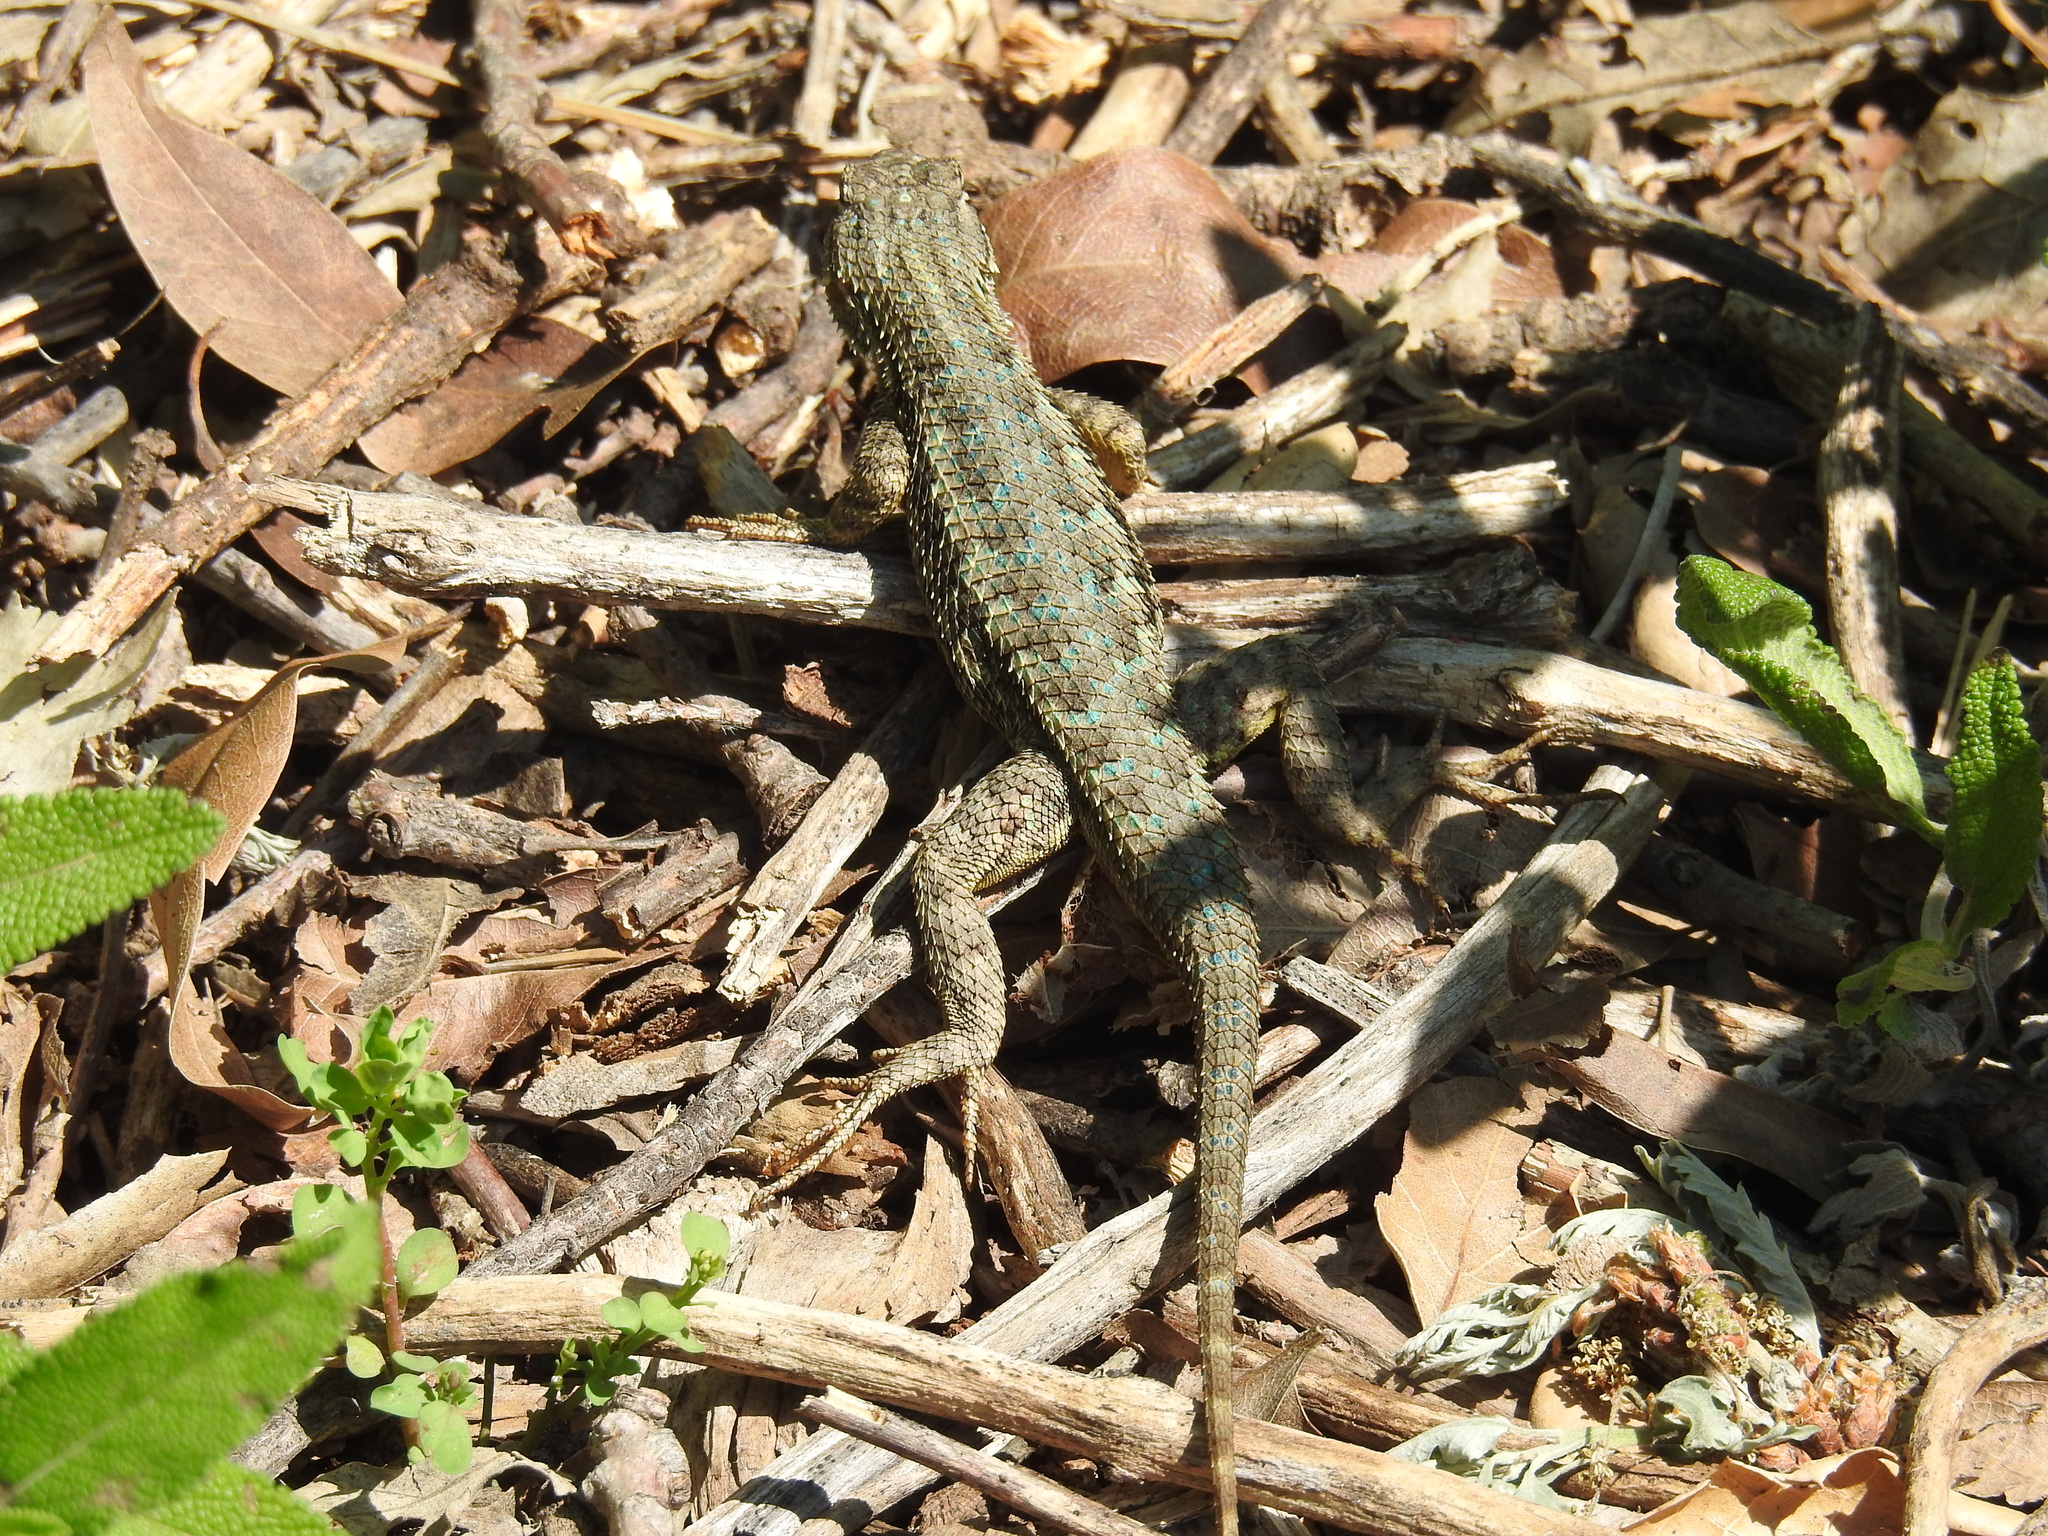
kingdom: Animalia
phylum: Chordata
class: Squamata
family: Phrynosomatidae
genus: Sceloporus
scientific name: Sceloporus occidentalis
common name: Western fence lizard
